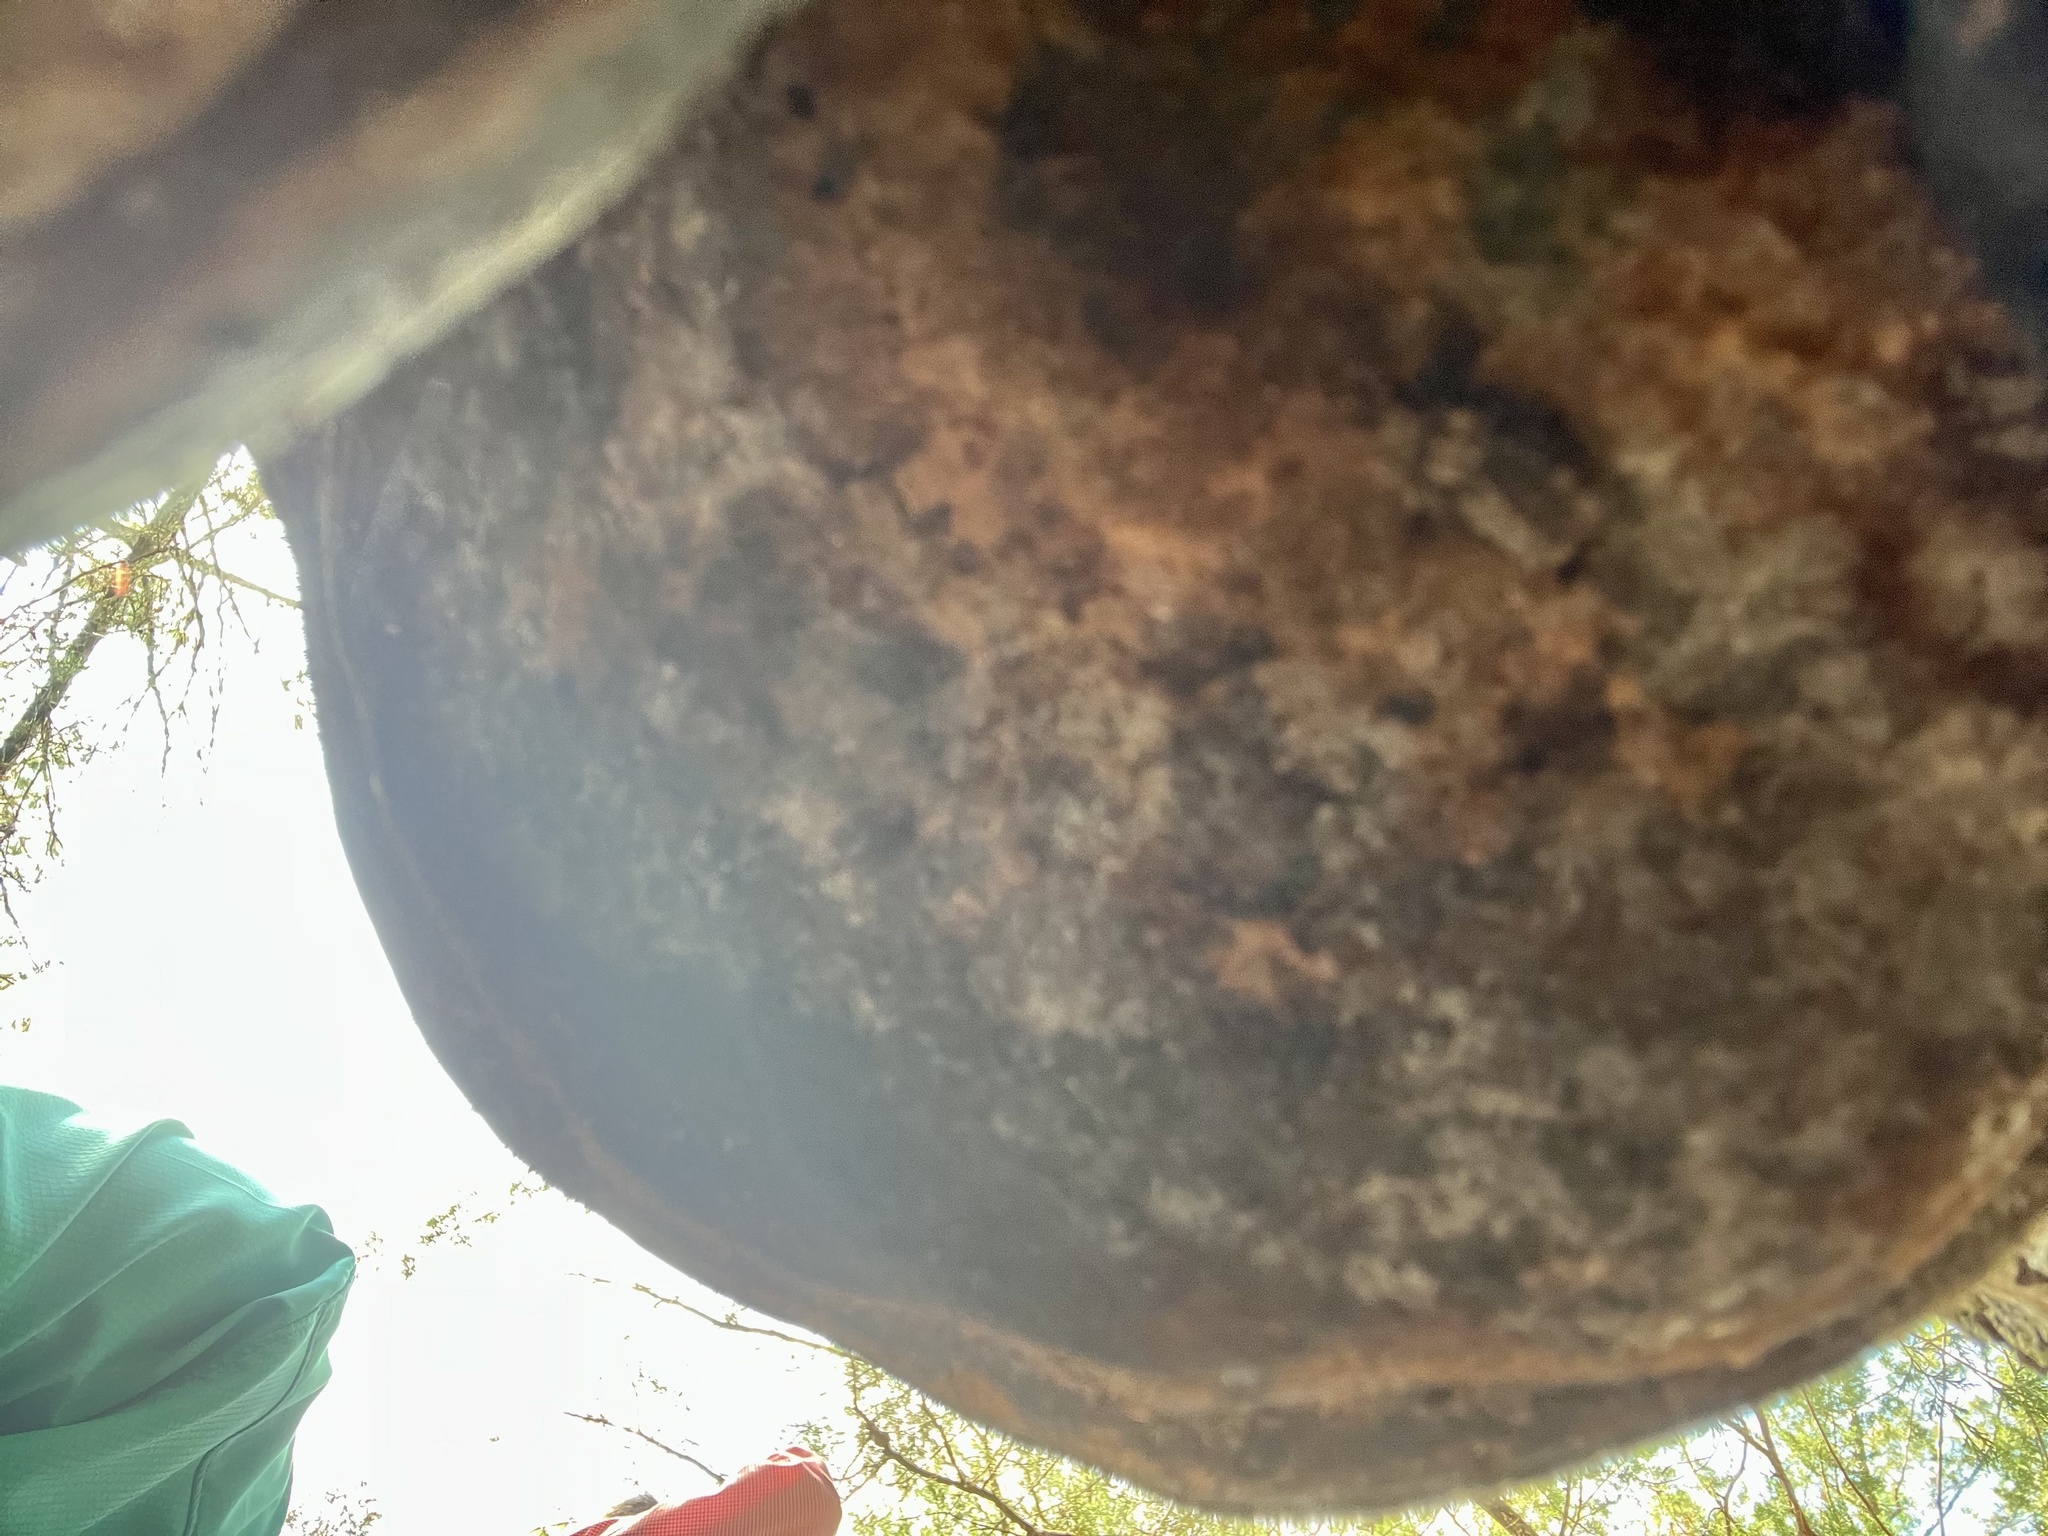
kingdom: Fungi
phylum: Basidiomycota
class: Agaricomycetes
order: Polyporales
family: Polyporaceae
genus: Fomes
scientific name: Fomes fasciatus
